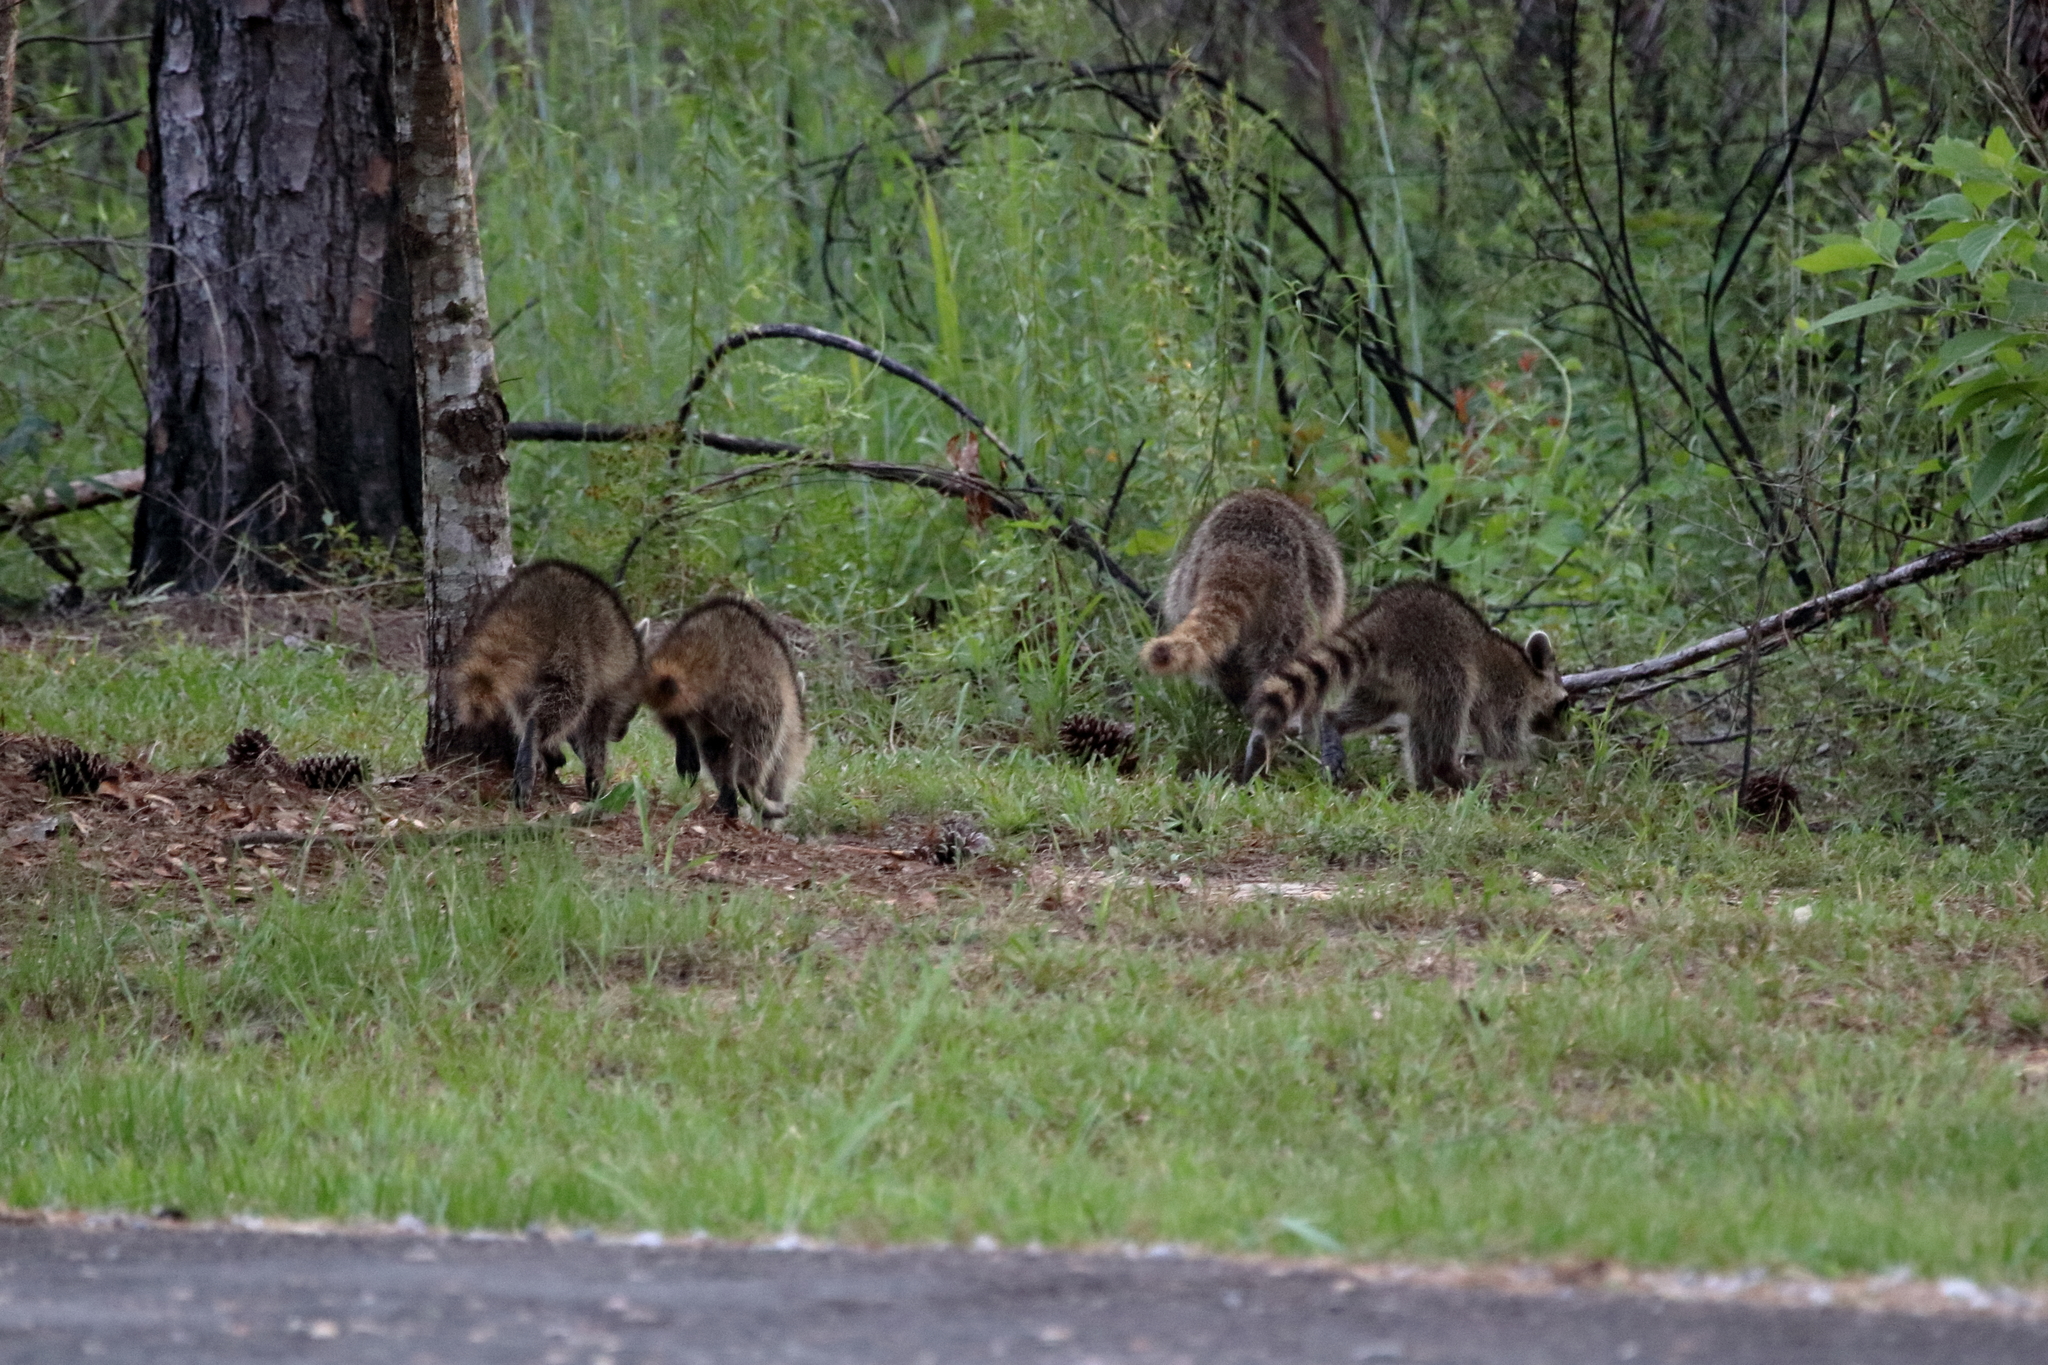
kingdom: Animalia
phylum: Chordata
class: Mammalia
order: Carnivora
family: Procyonidae
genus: Procyon
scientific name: Procyon lotor
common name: Raccoon
